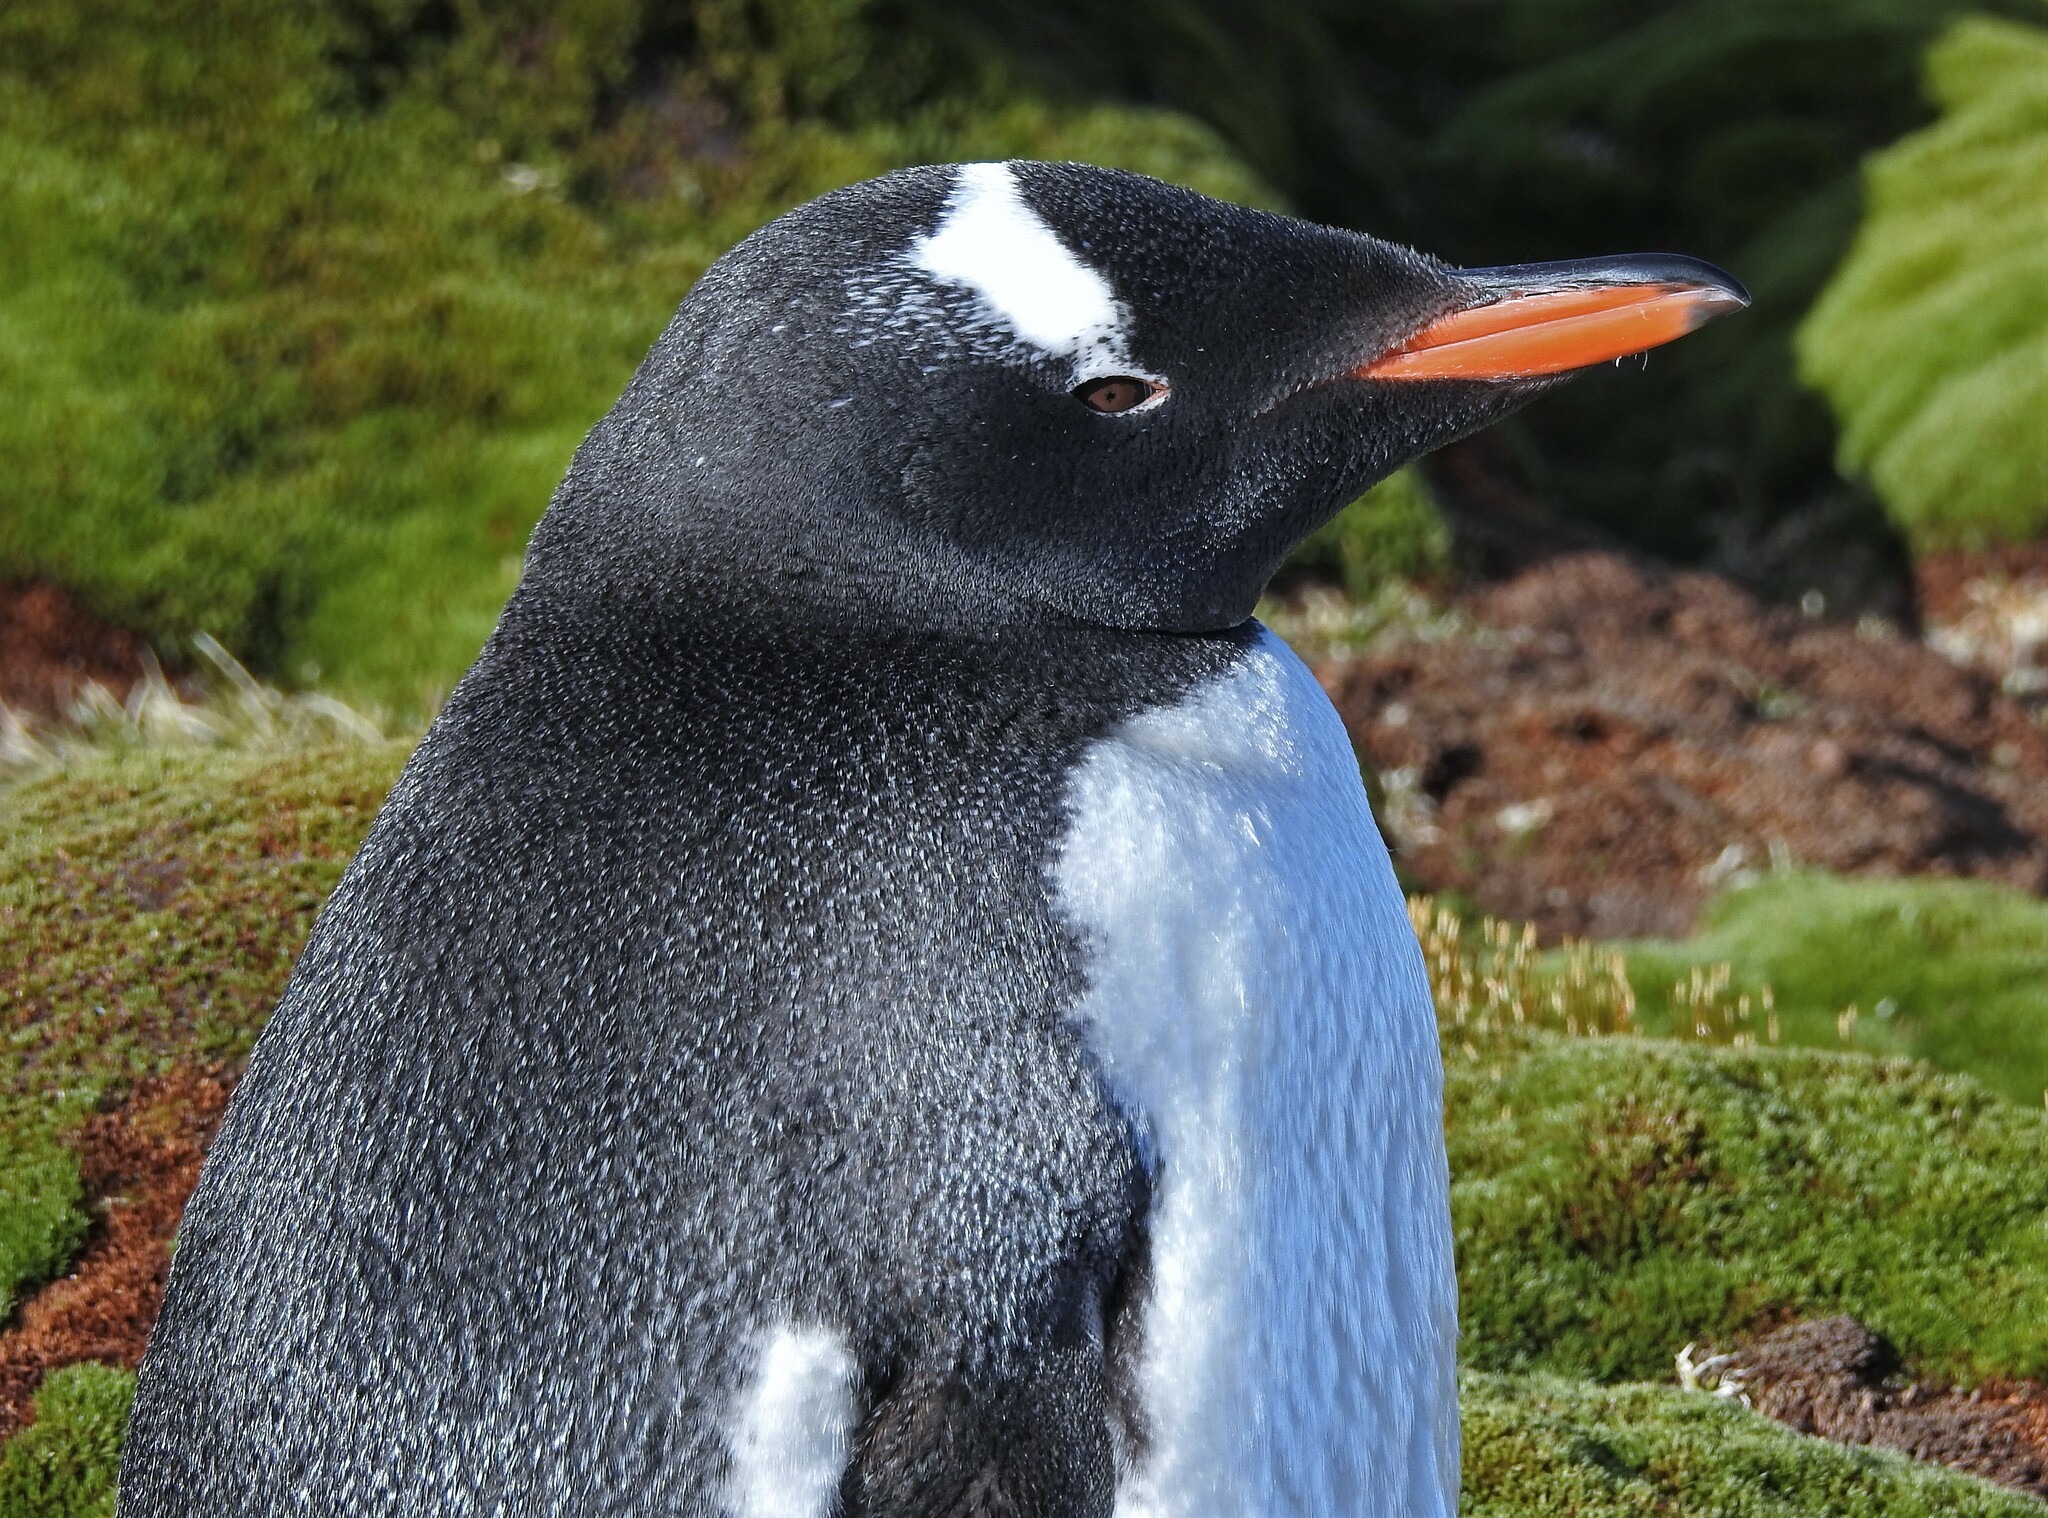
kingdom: Animalia
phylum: Chordata
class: Aves
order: Sphenisciformes
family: Spheniscidae
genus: Pygoscelis
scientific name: Pygoscelis papua
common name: Gentoo penguin
